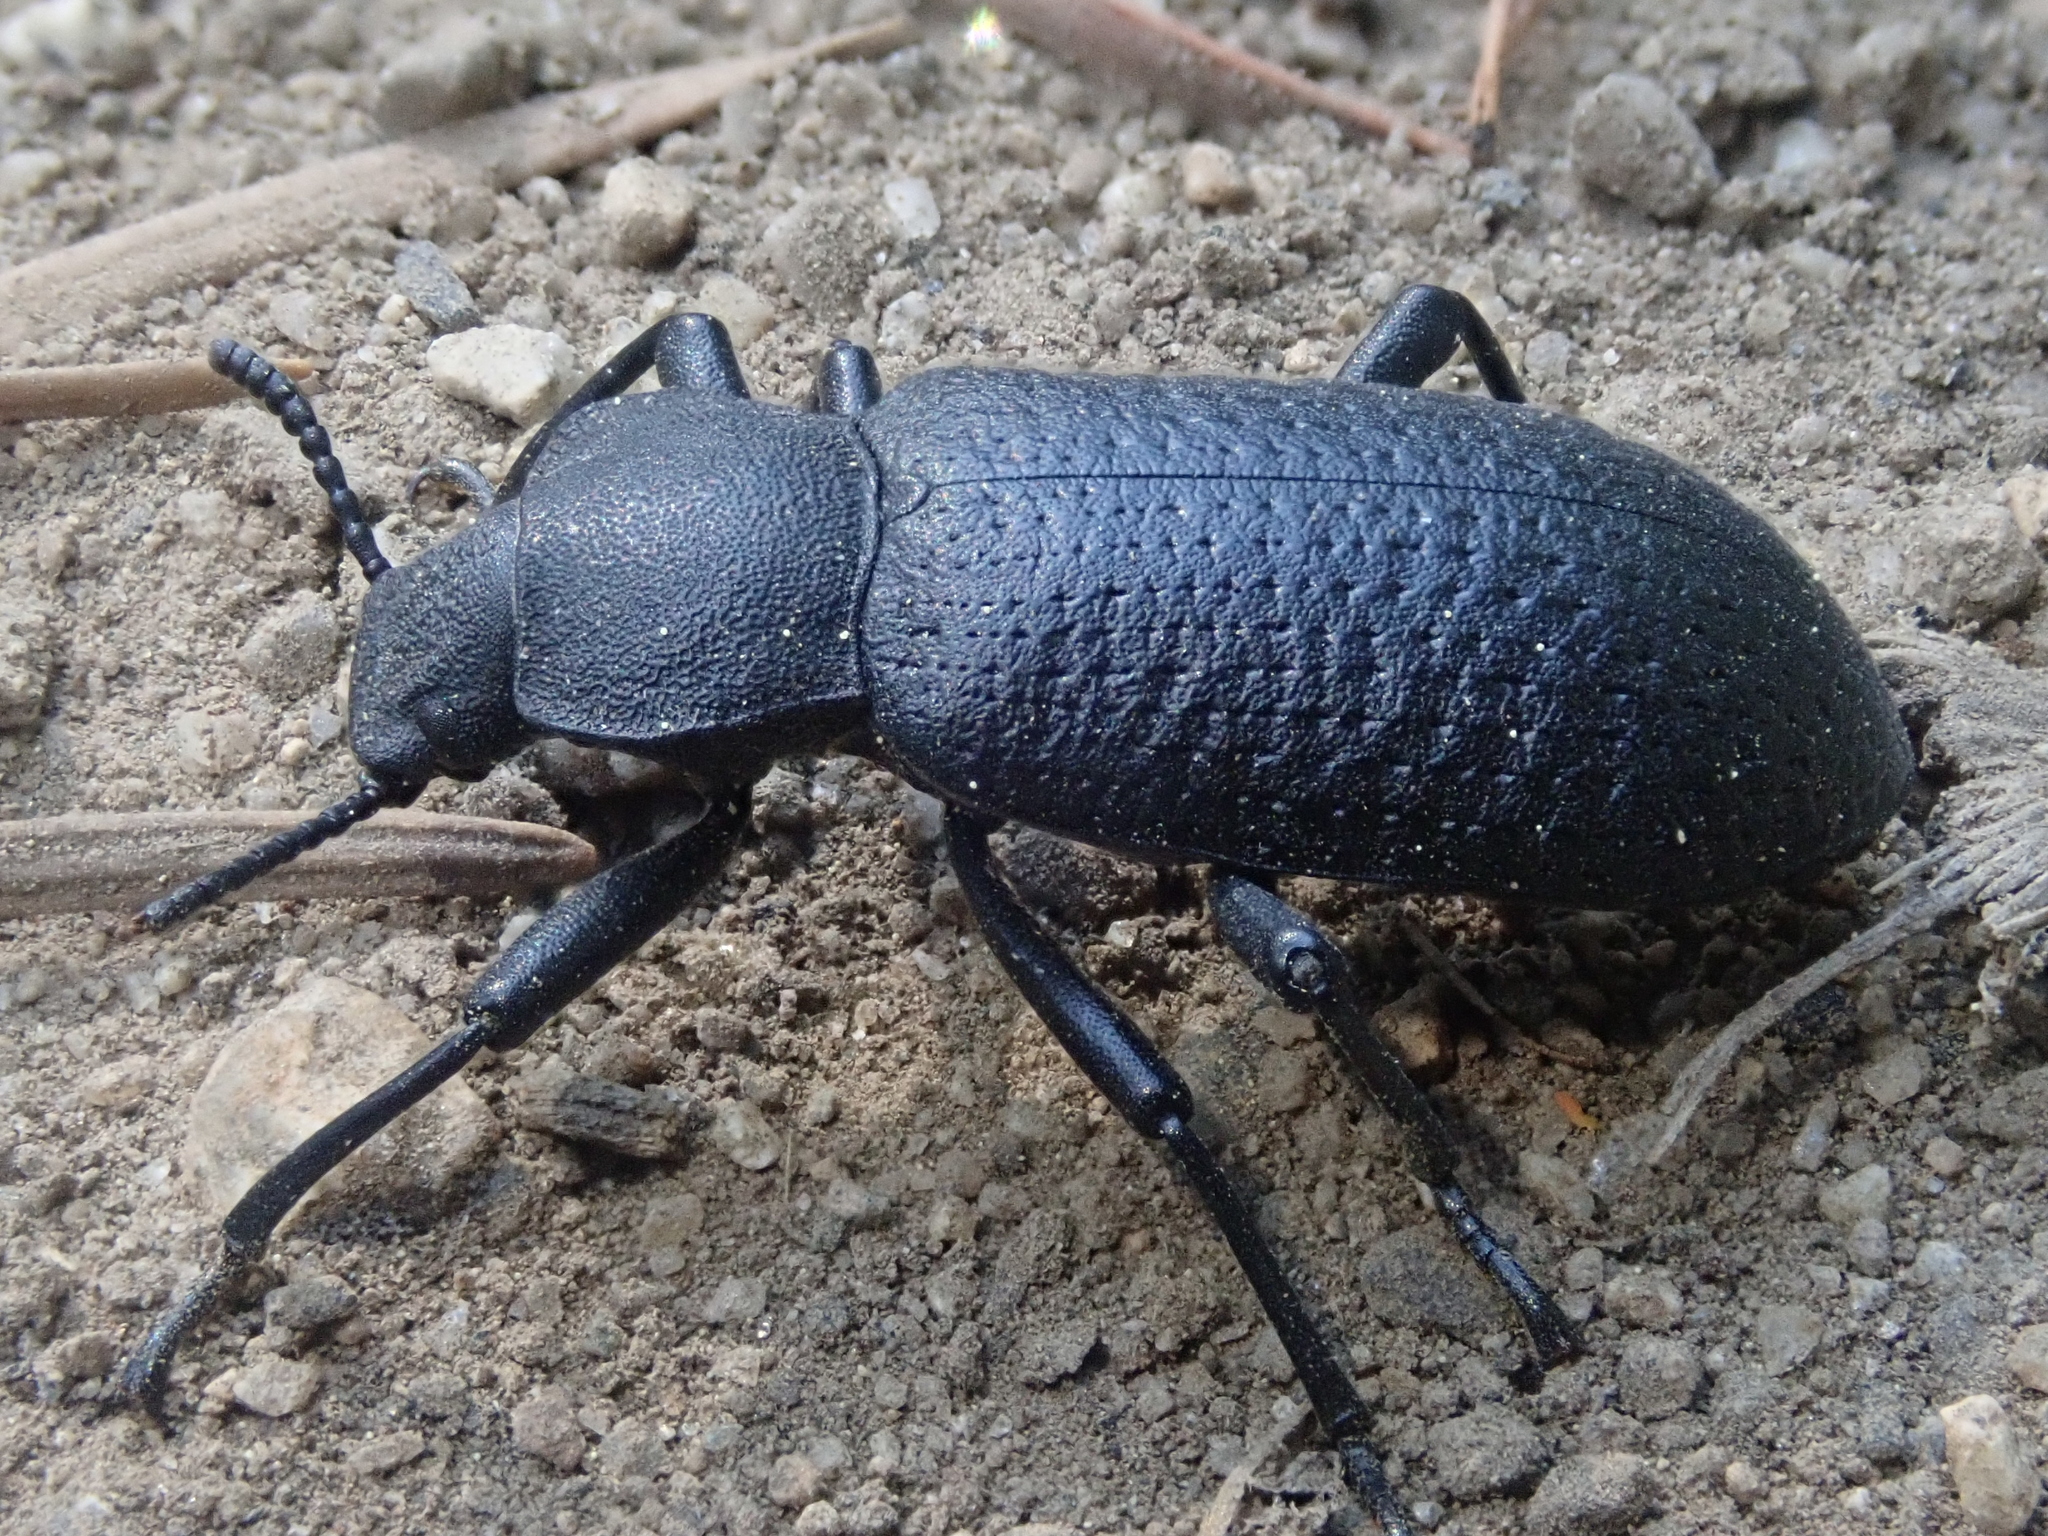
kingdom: Animalia
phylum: Arthropoda
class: Insecta
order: Coleoptera
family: Tenebrionidae
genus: Iphthiminus
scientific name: Iphthiminus serratus
